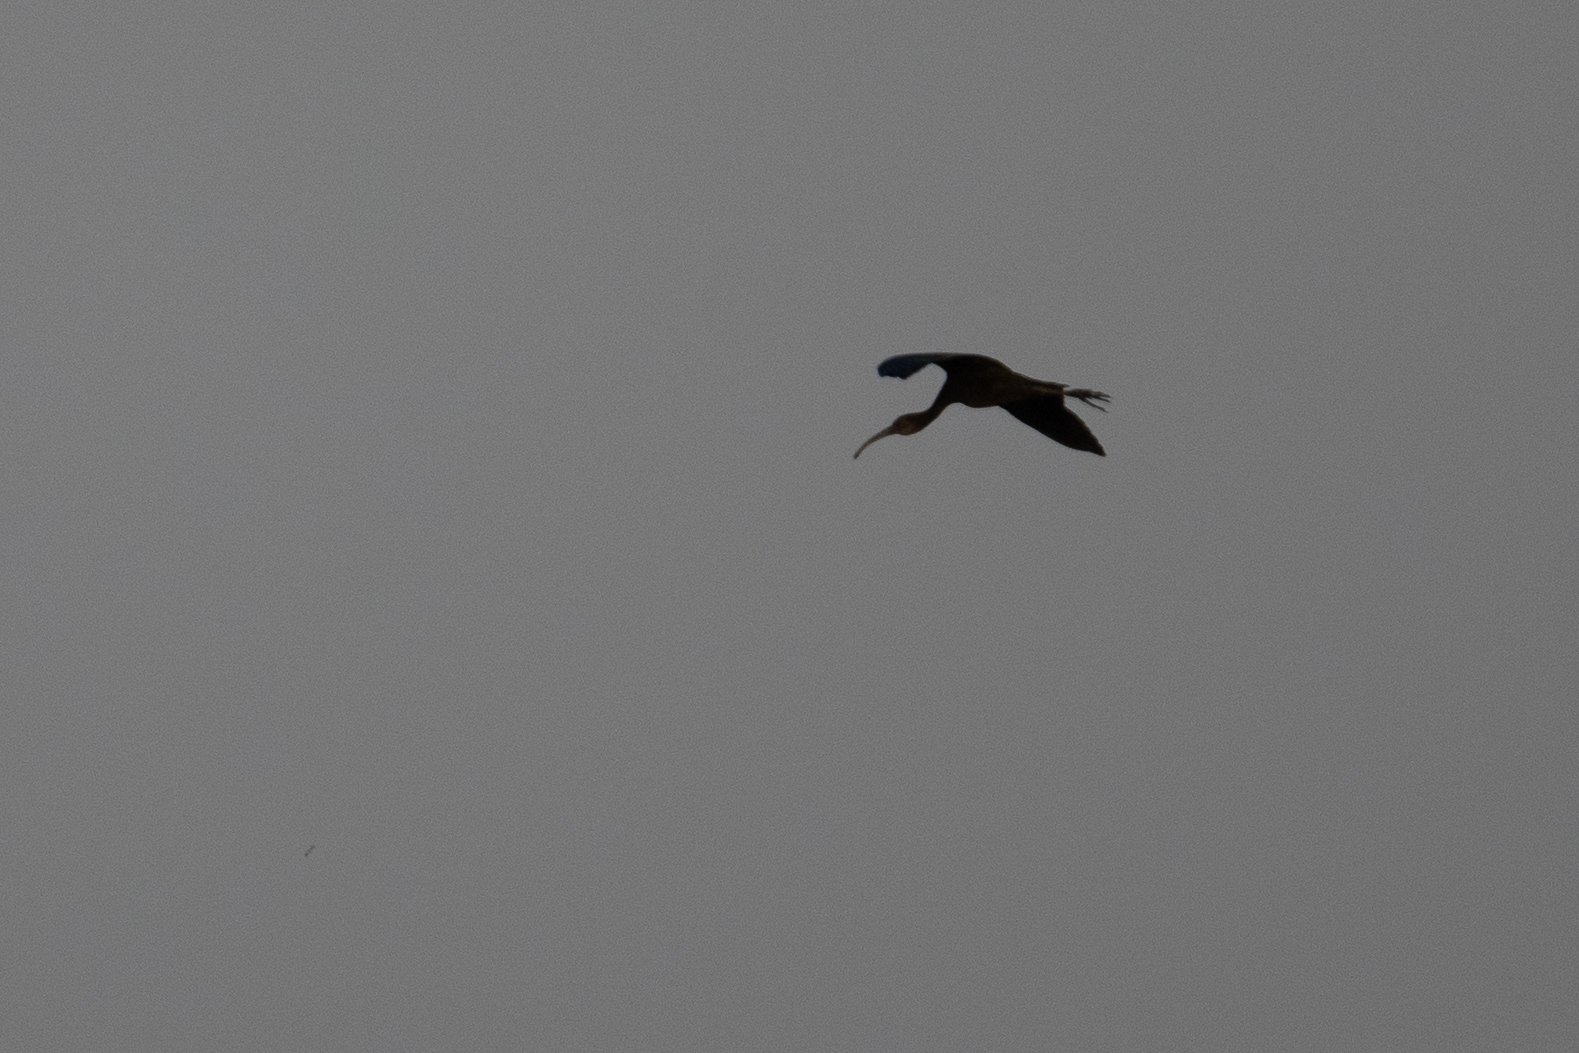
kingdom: Animalia
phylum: Chordata
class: Aves
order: Pelecaniformes
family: Threskiornithidae
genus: Plegadis
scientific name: Plegadis chihi
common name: White-faced ibis
